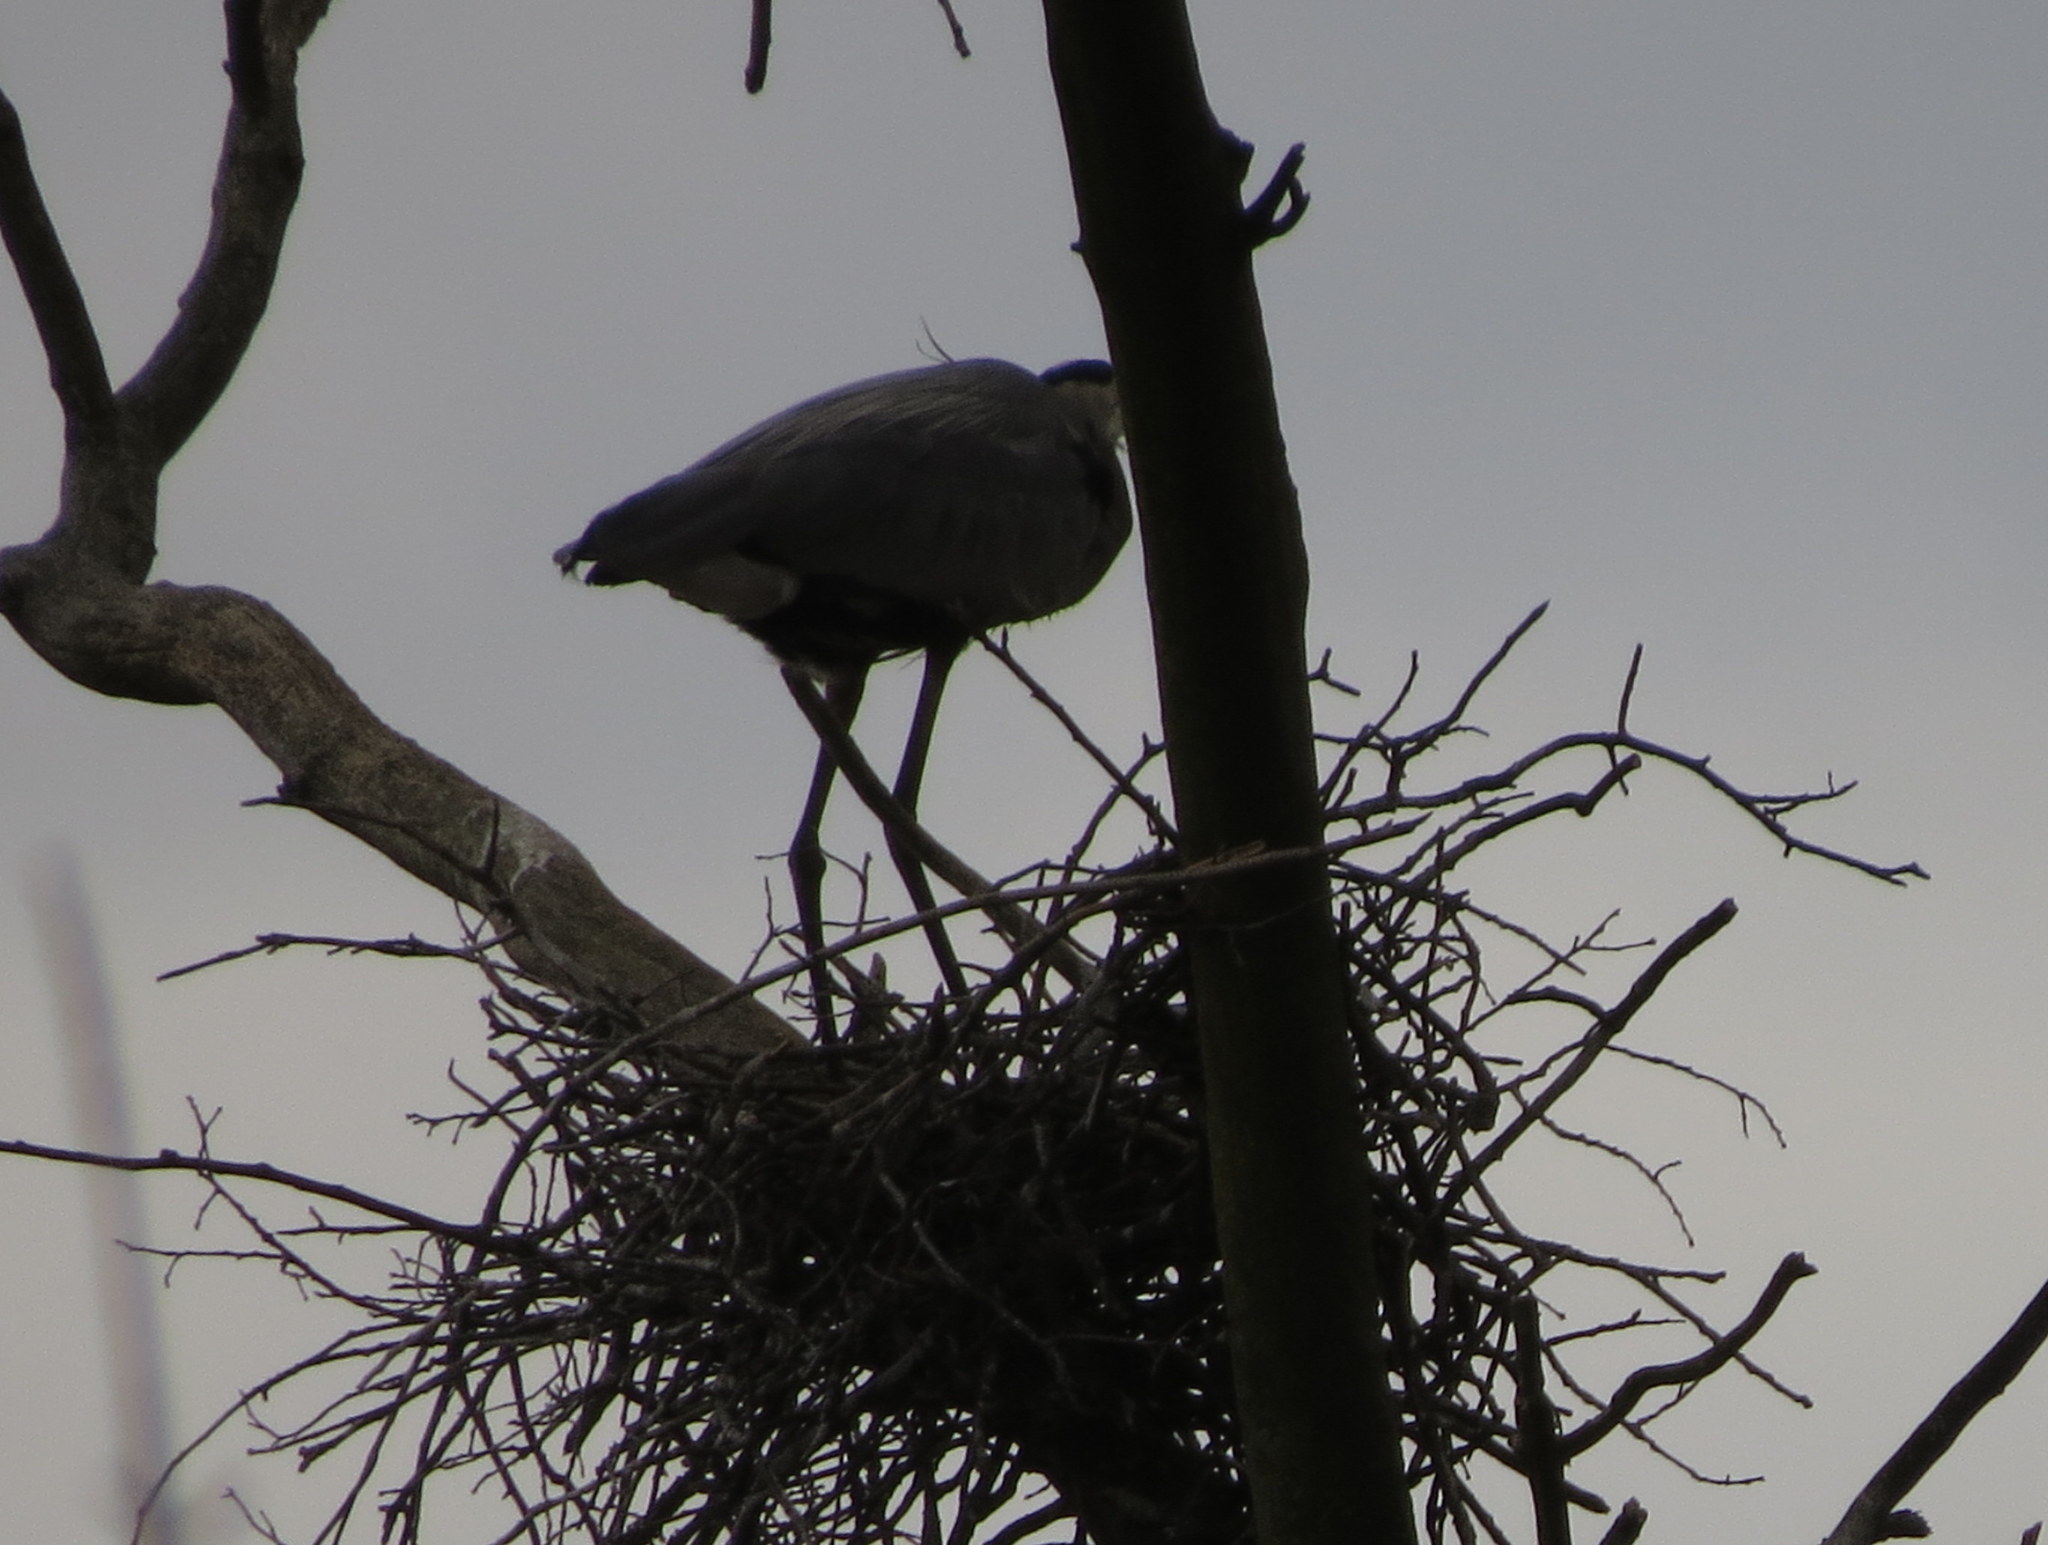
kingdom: Animalia
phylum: Chordata
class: Aves
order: Pelecaniformes
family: Ardeidae
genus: Ardea
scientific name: Ardea herodias
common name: Great blue heron
